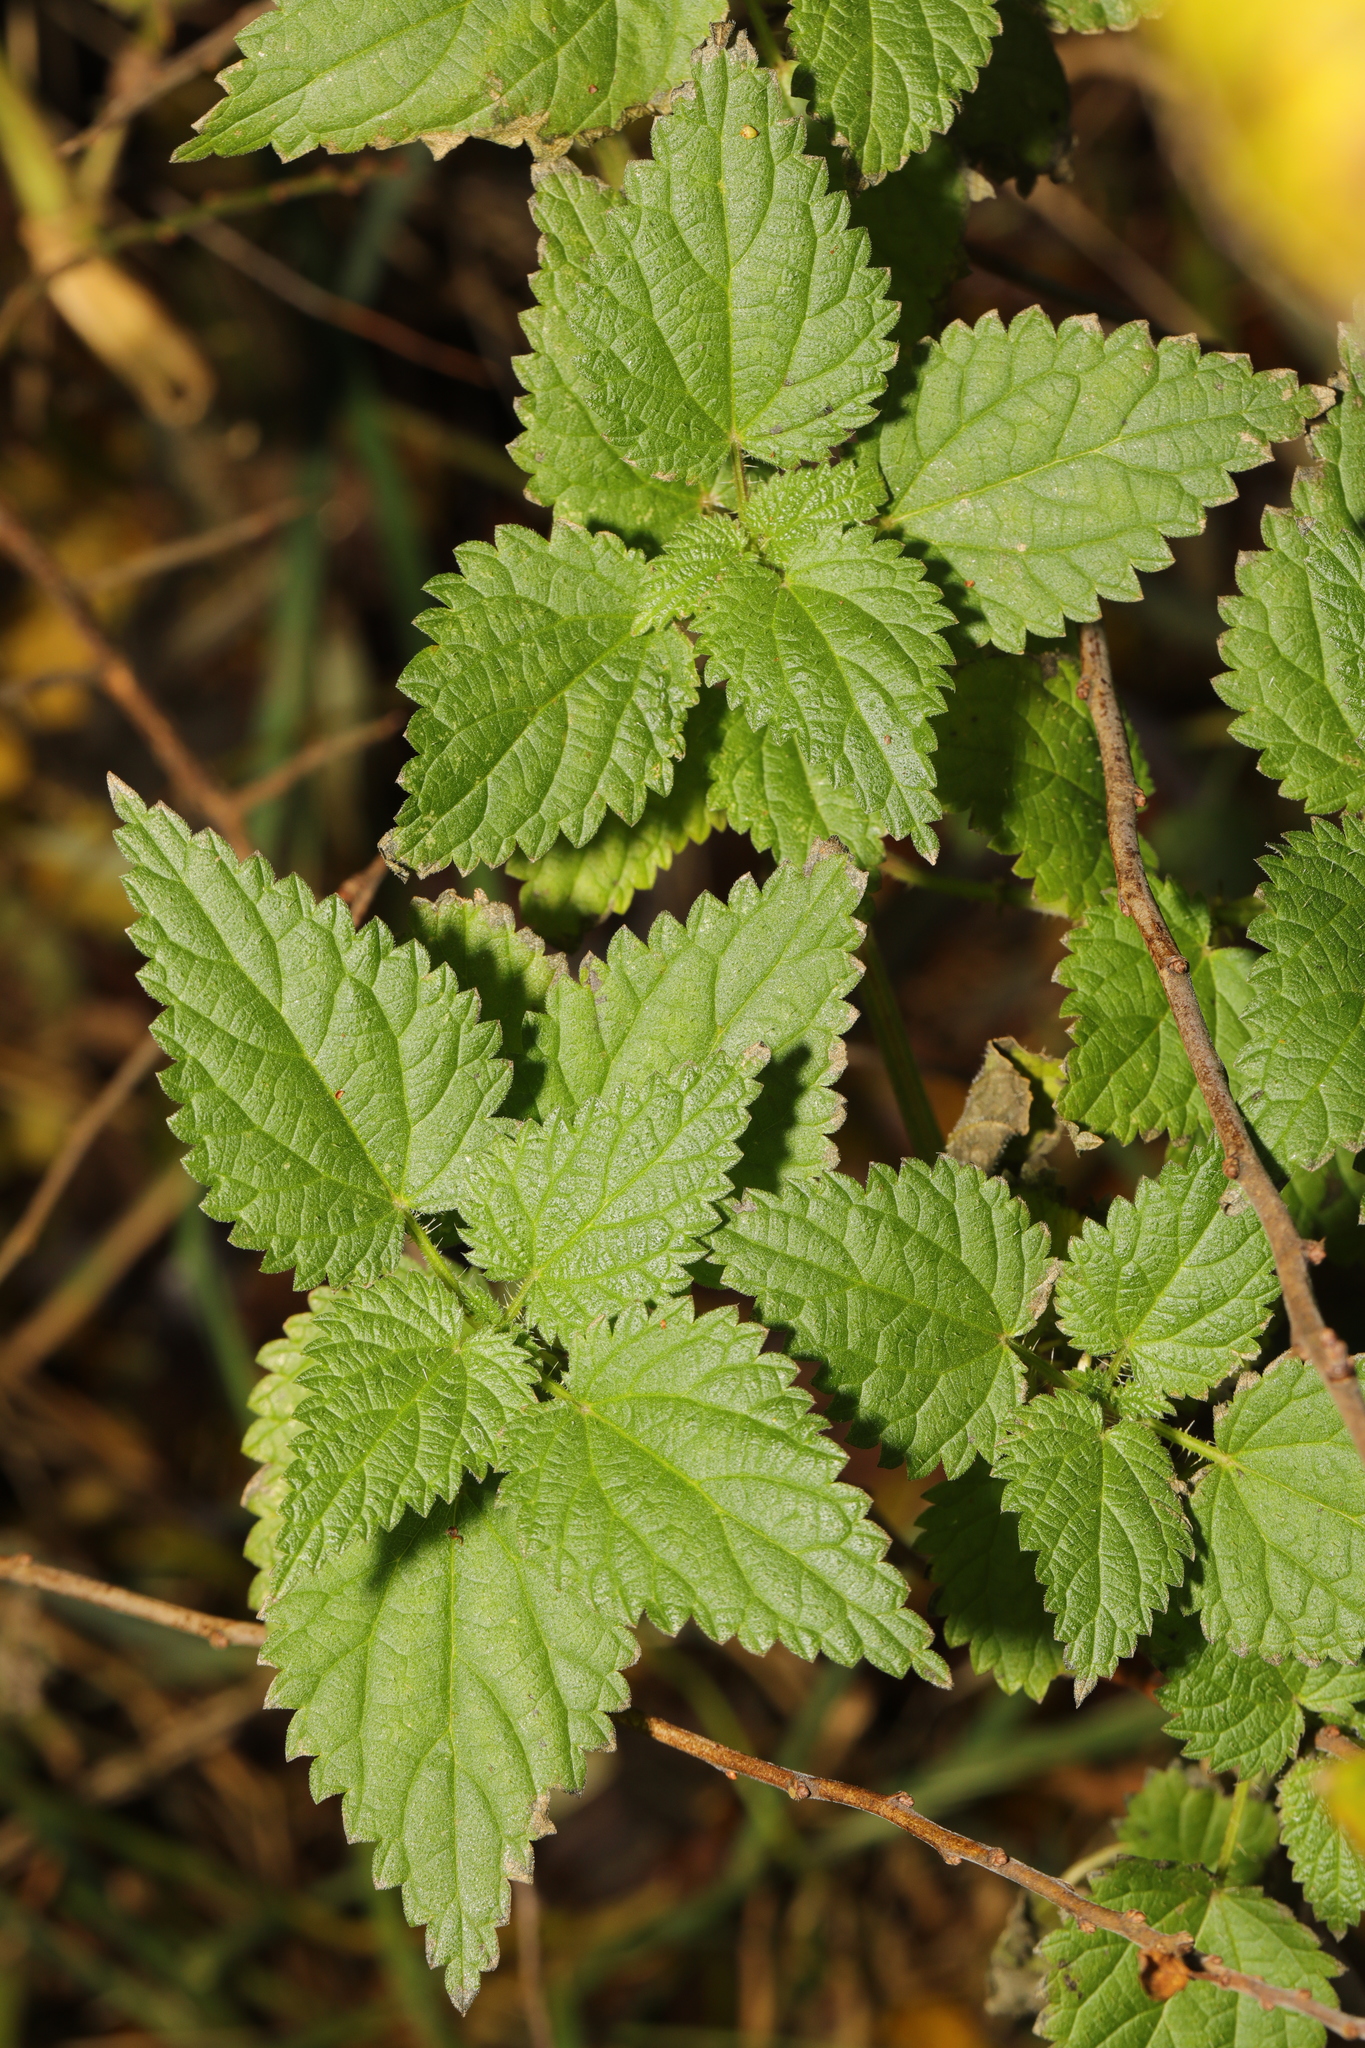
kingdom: Plantae
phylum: Tracheophyta
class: Magnoliopsida
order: Rosales
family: Urticaceae
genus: Urtica
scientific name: Urtica dioica
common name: Common nettle
